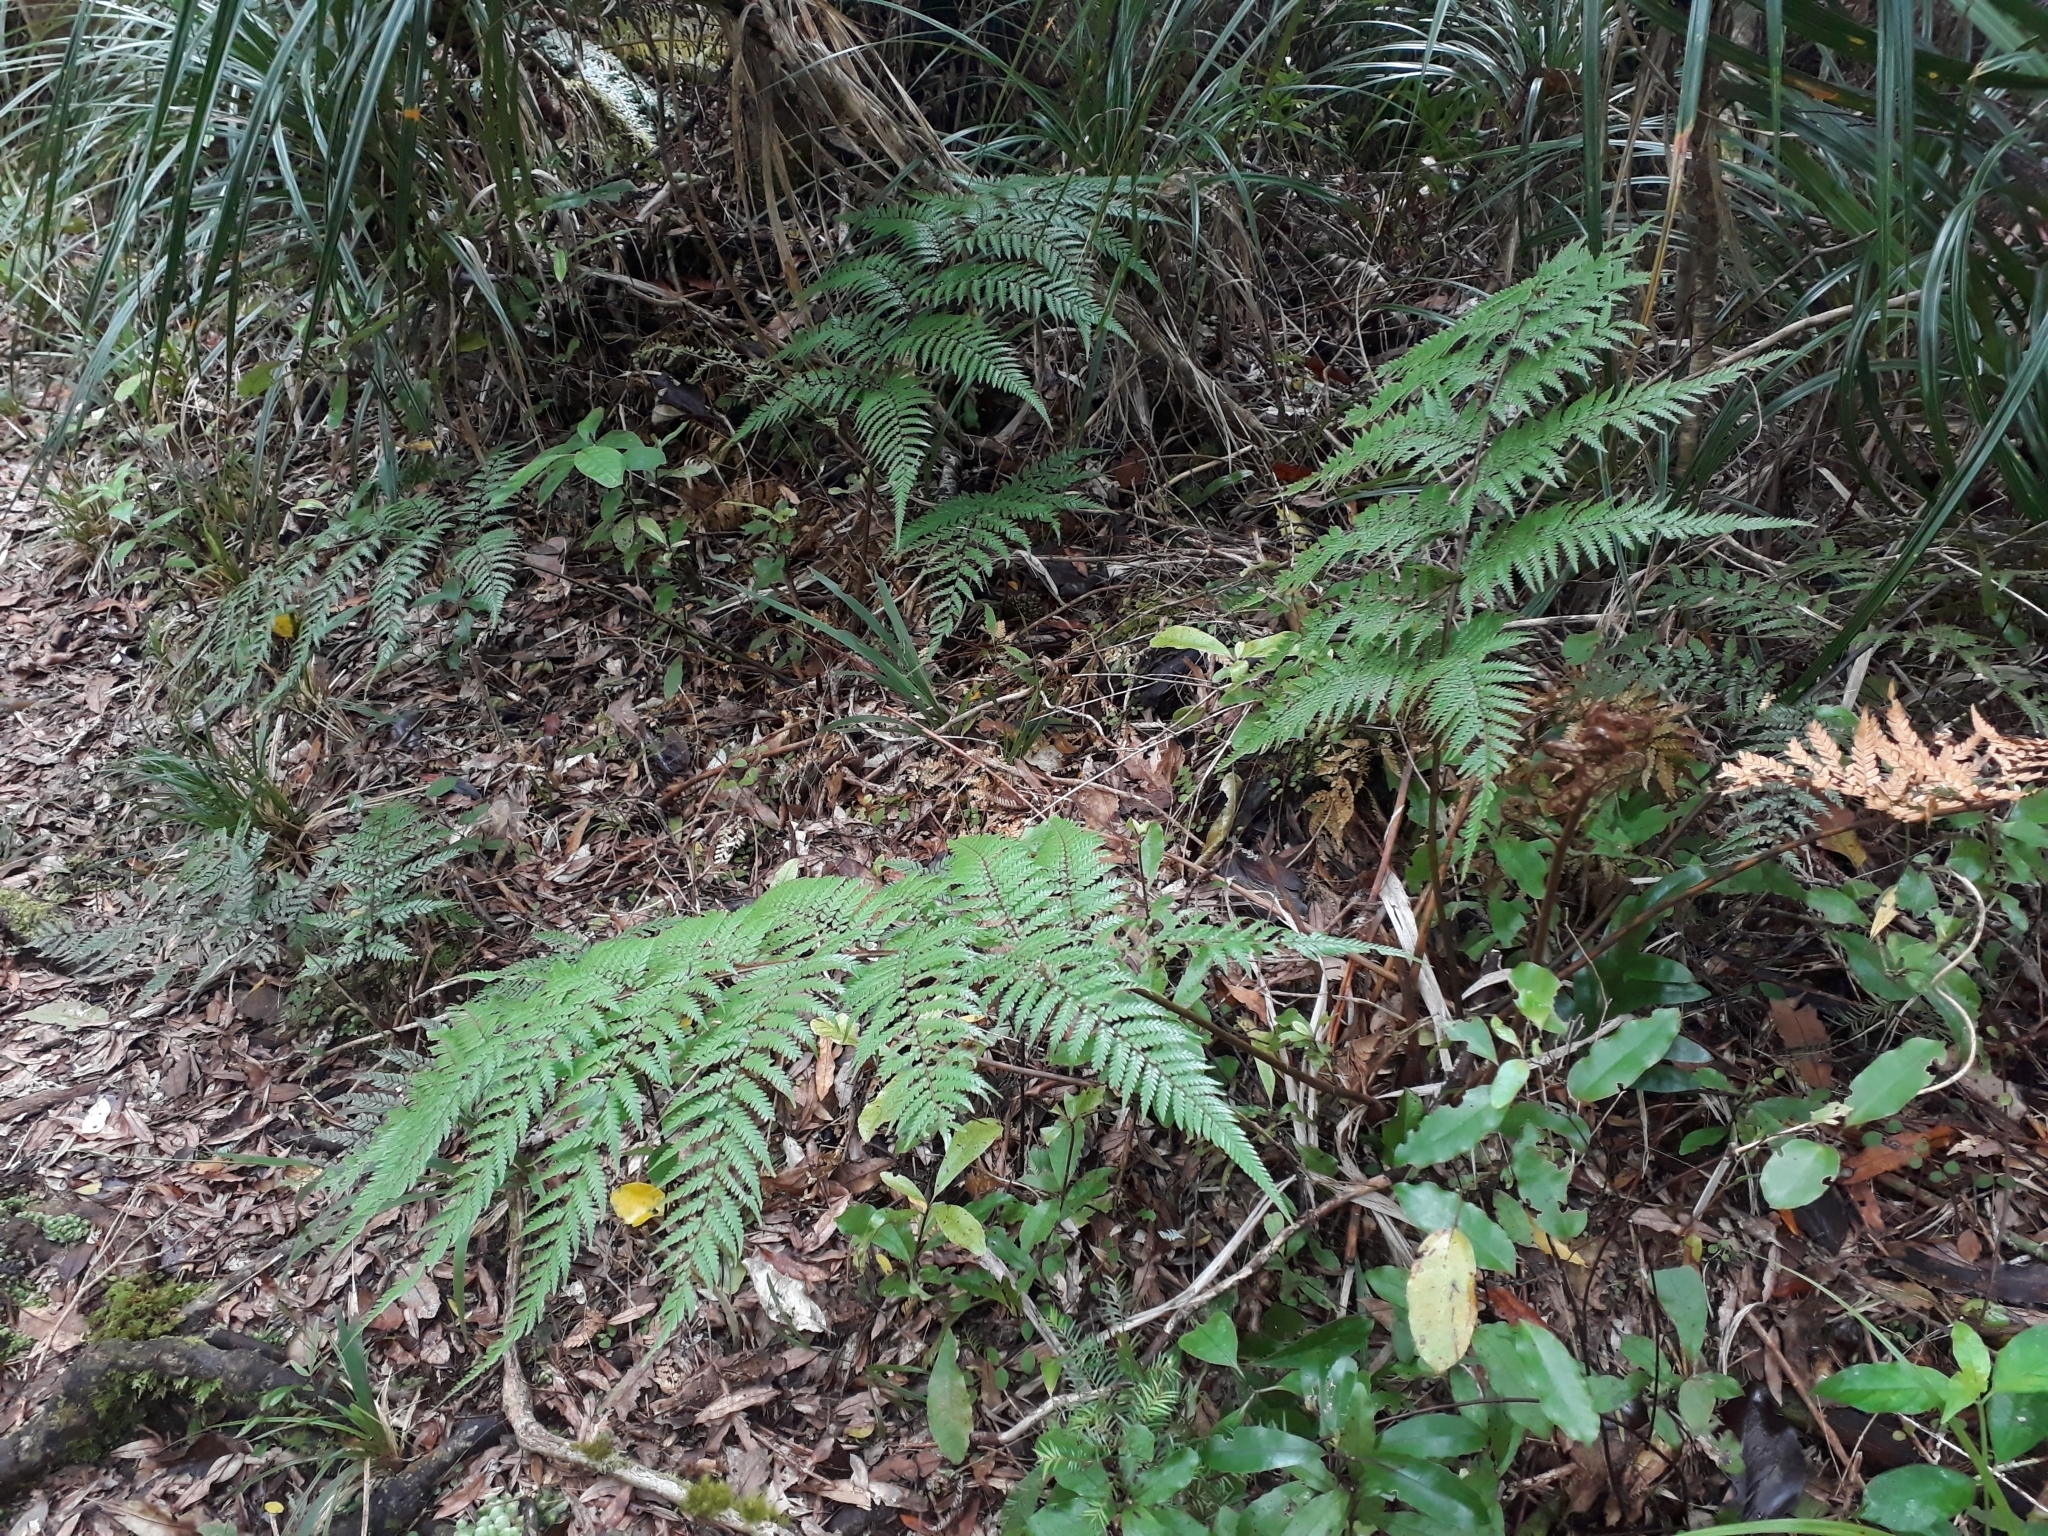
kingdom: Plantae
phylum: Tracheophyta
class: Polypodiopsida
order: Cyatheales
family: Dicksoniaceae
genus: Dicksonia
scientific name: Dicksonia lanata
